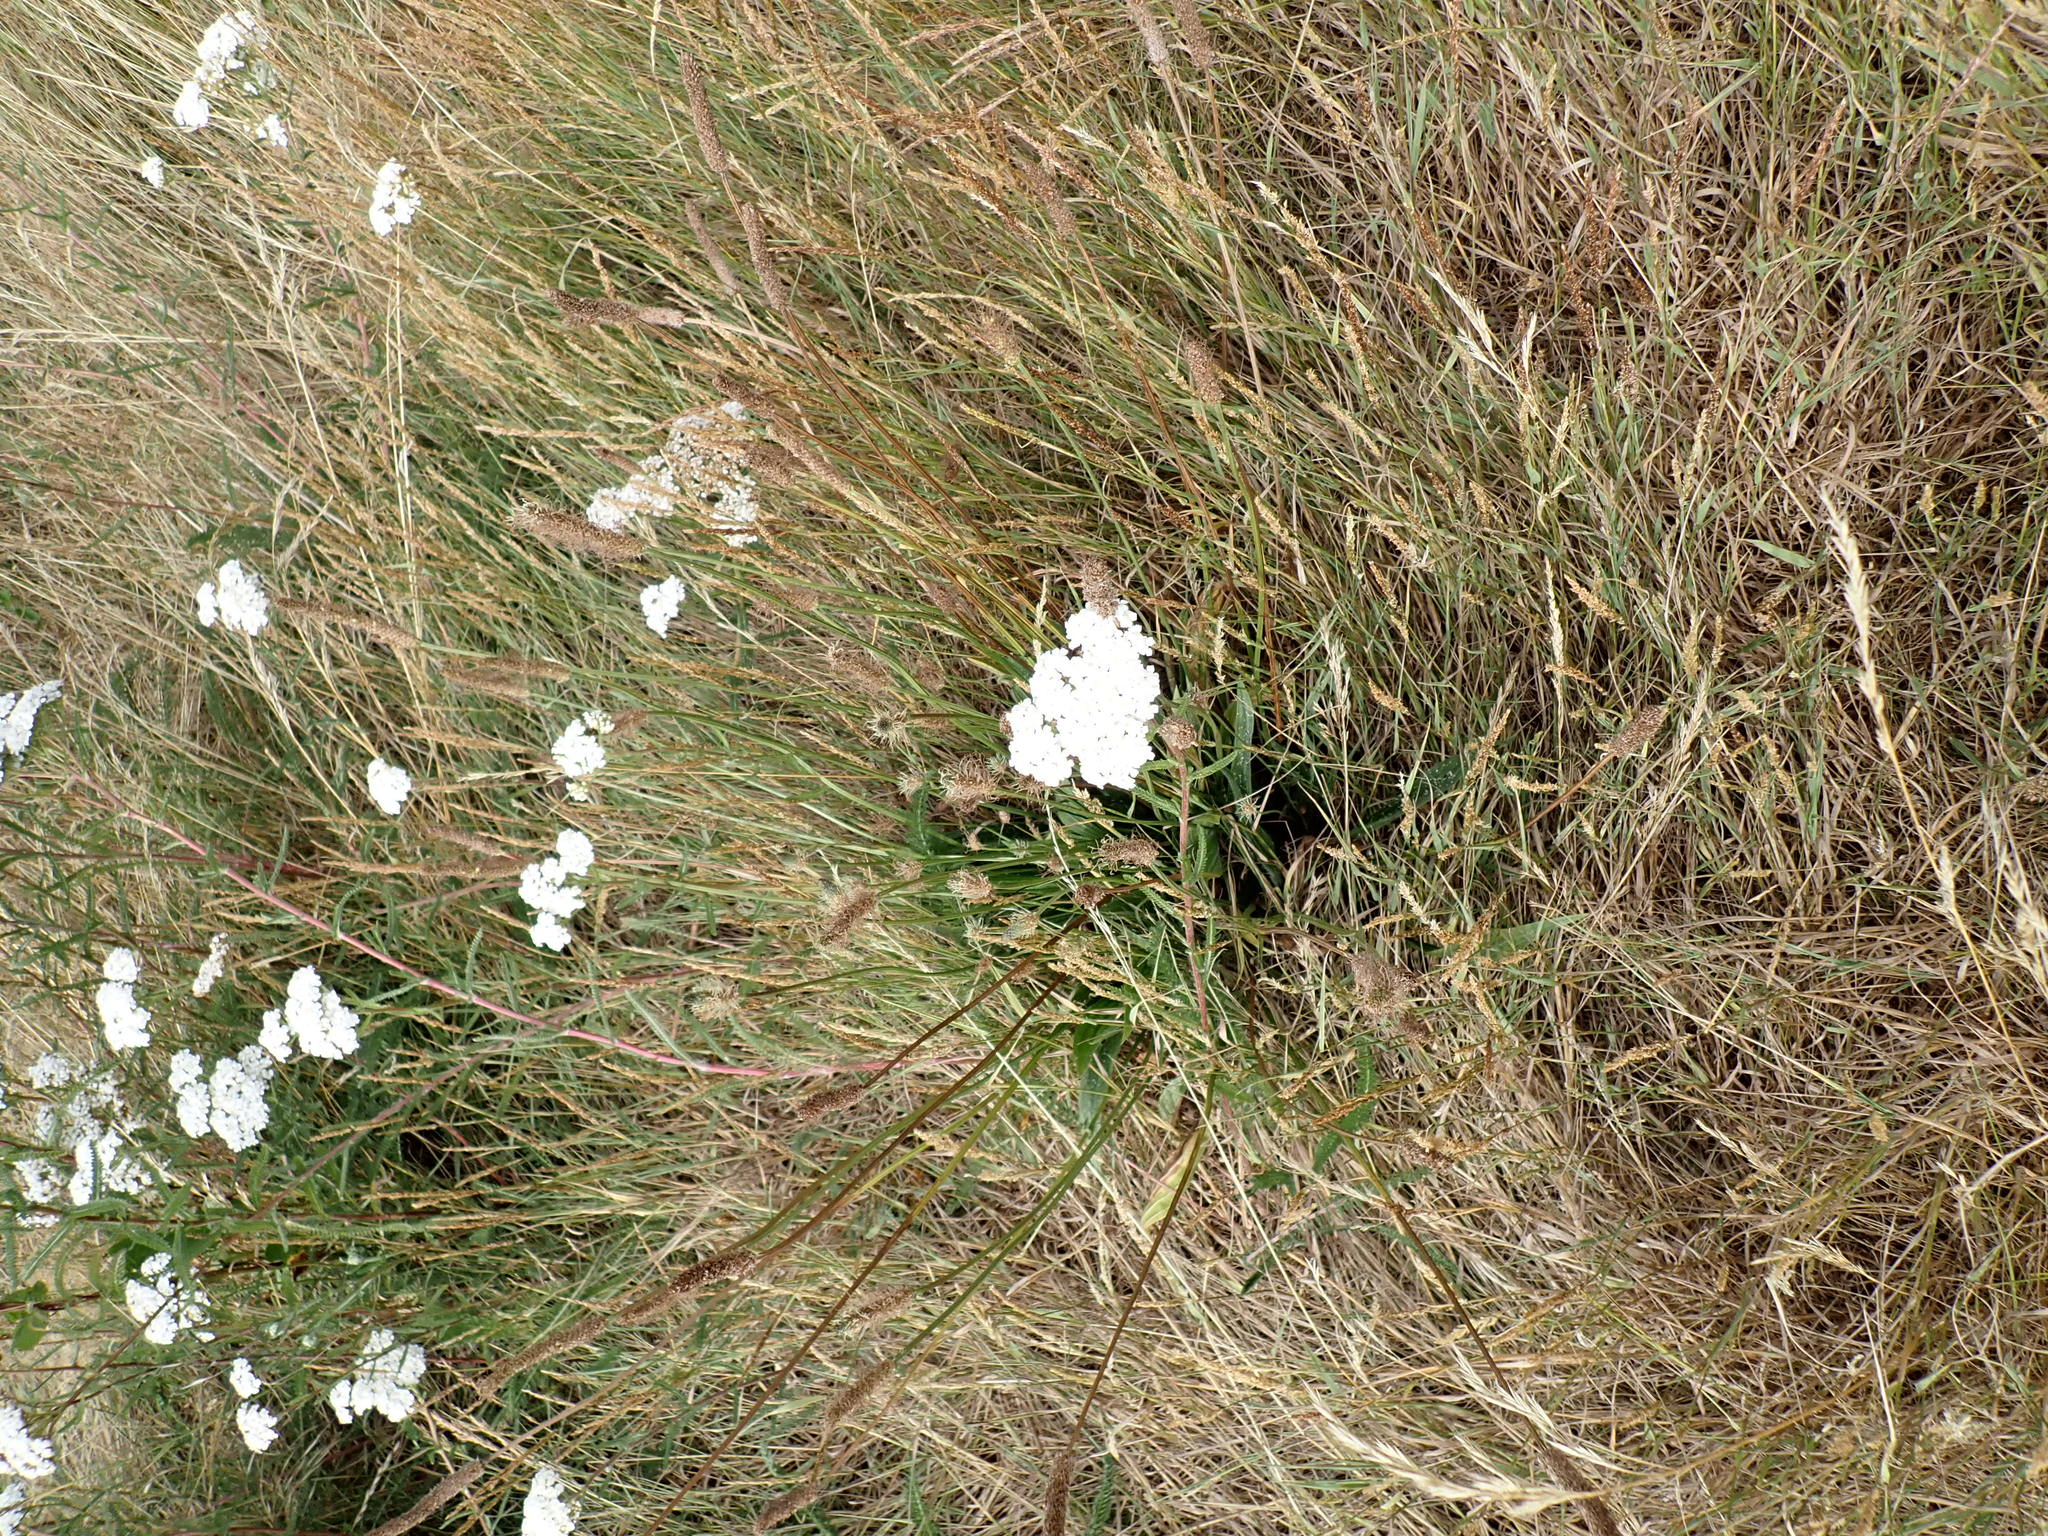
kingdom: Plantae
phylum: Tracheophyta
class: Magnoliopsida
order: Asterales
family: Asteraceae
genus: Achillea
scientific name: Achillea millefolium
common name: Yarrow
